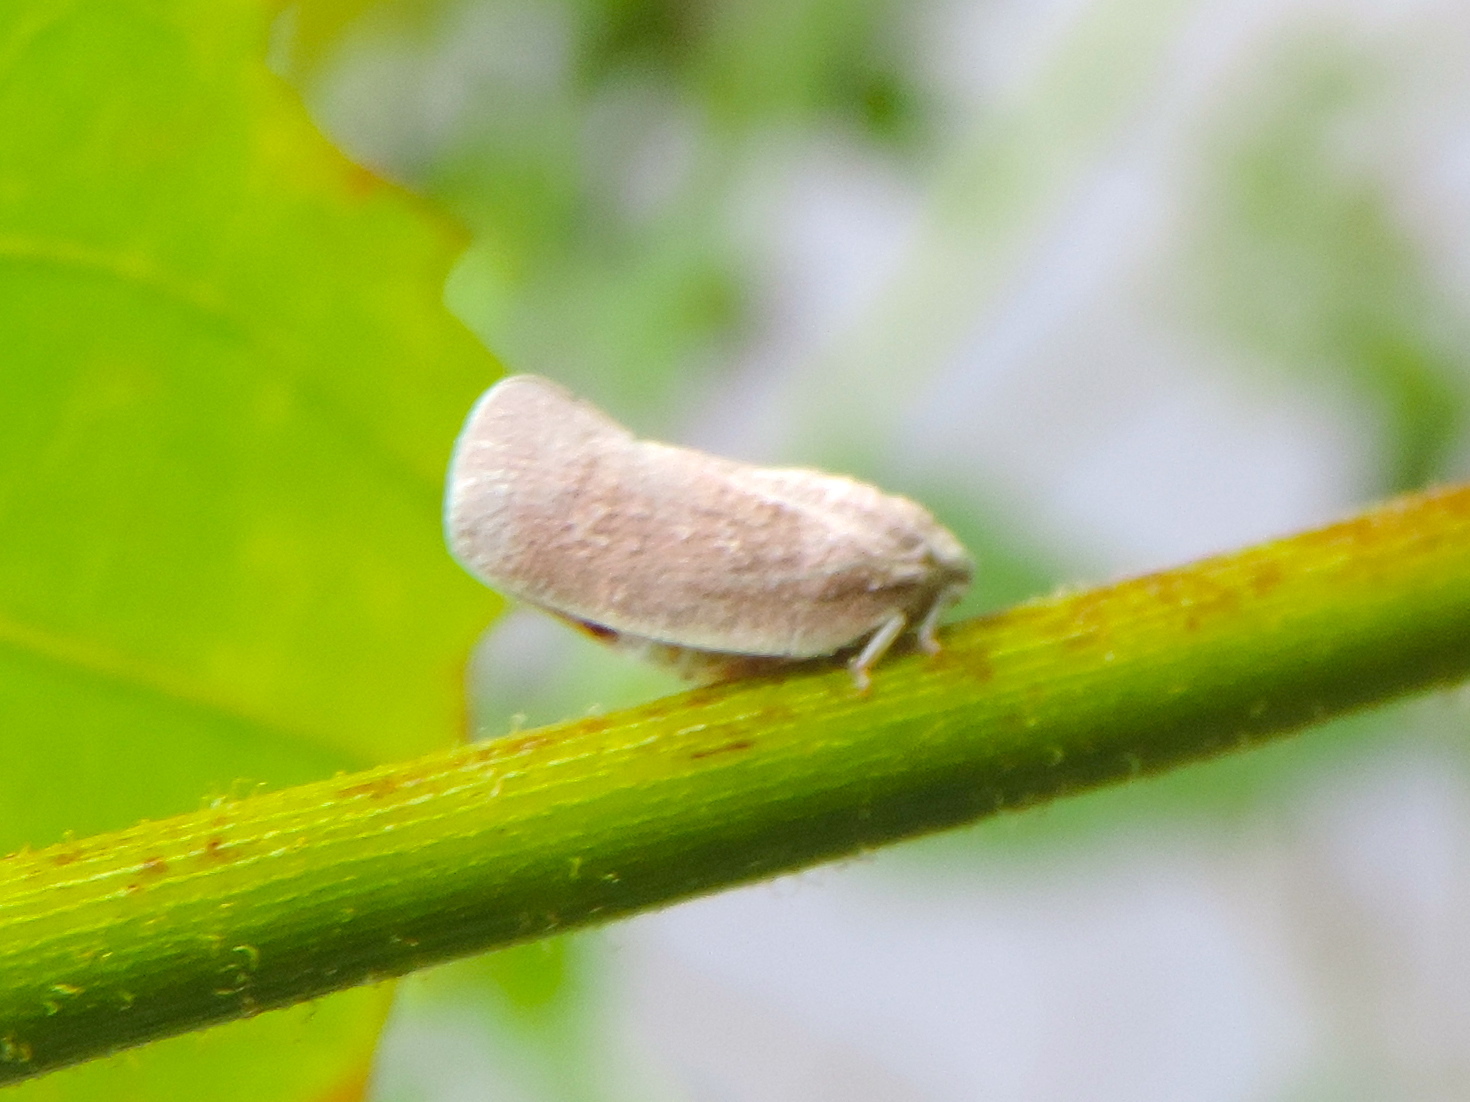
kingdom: Animalia
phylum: Arthropoda
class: Insecta
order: Hemiptera
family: Flatidae
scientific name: Flatidae
